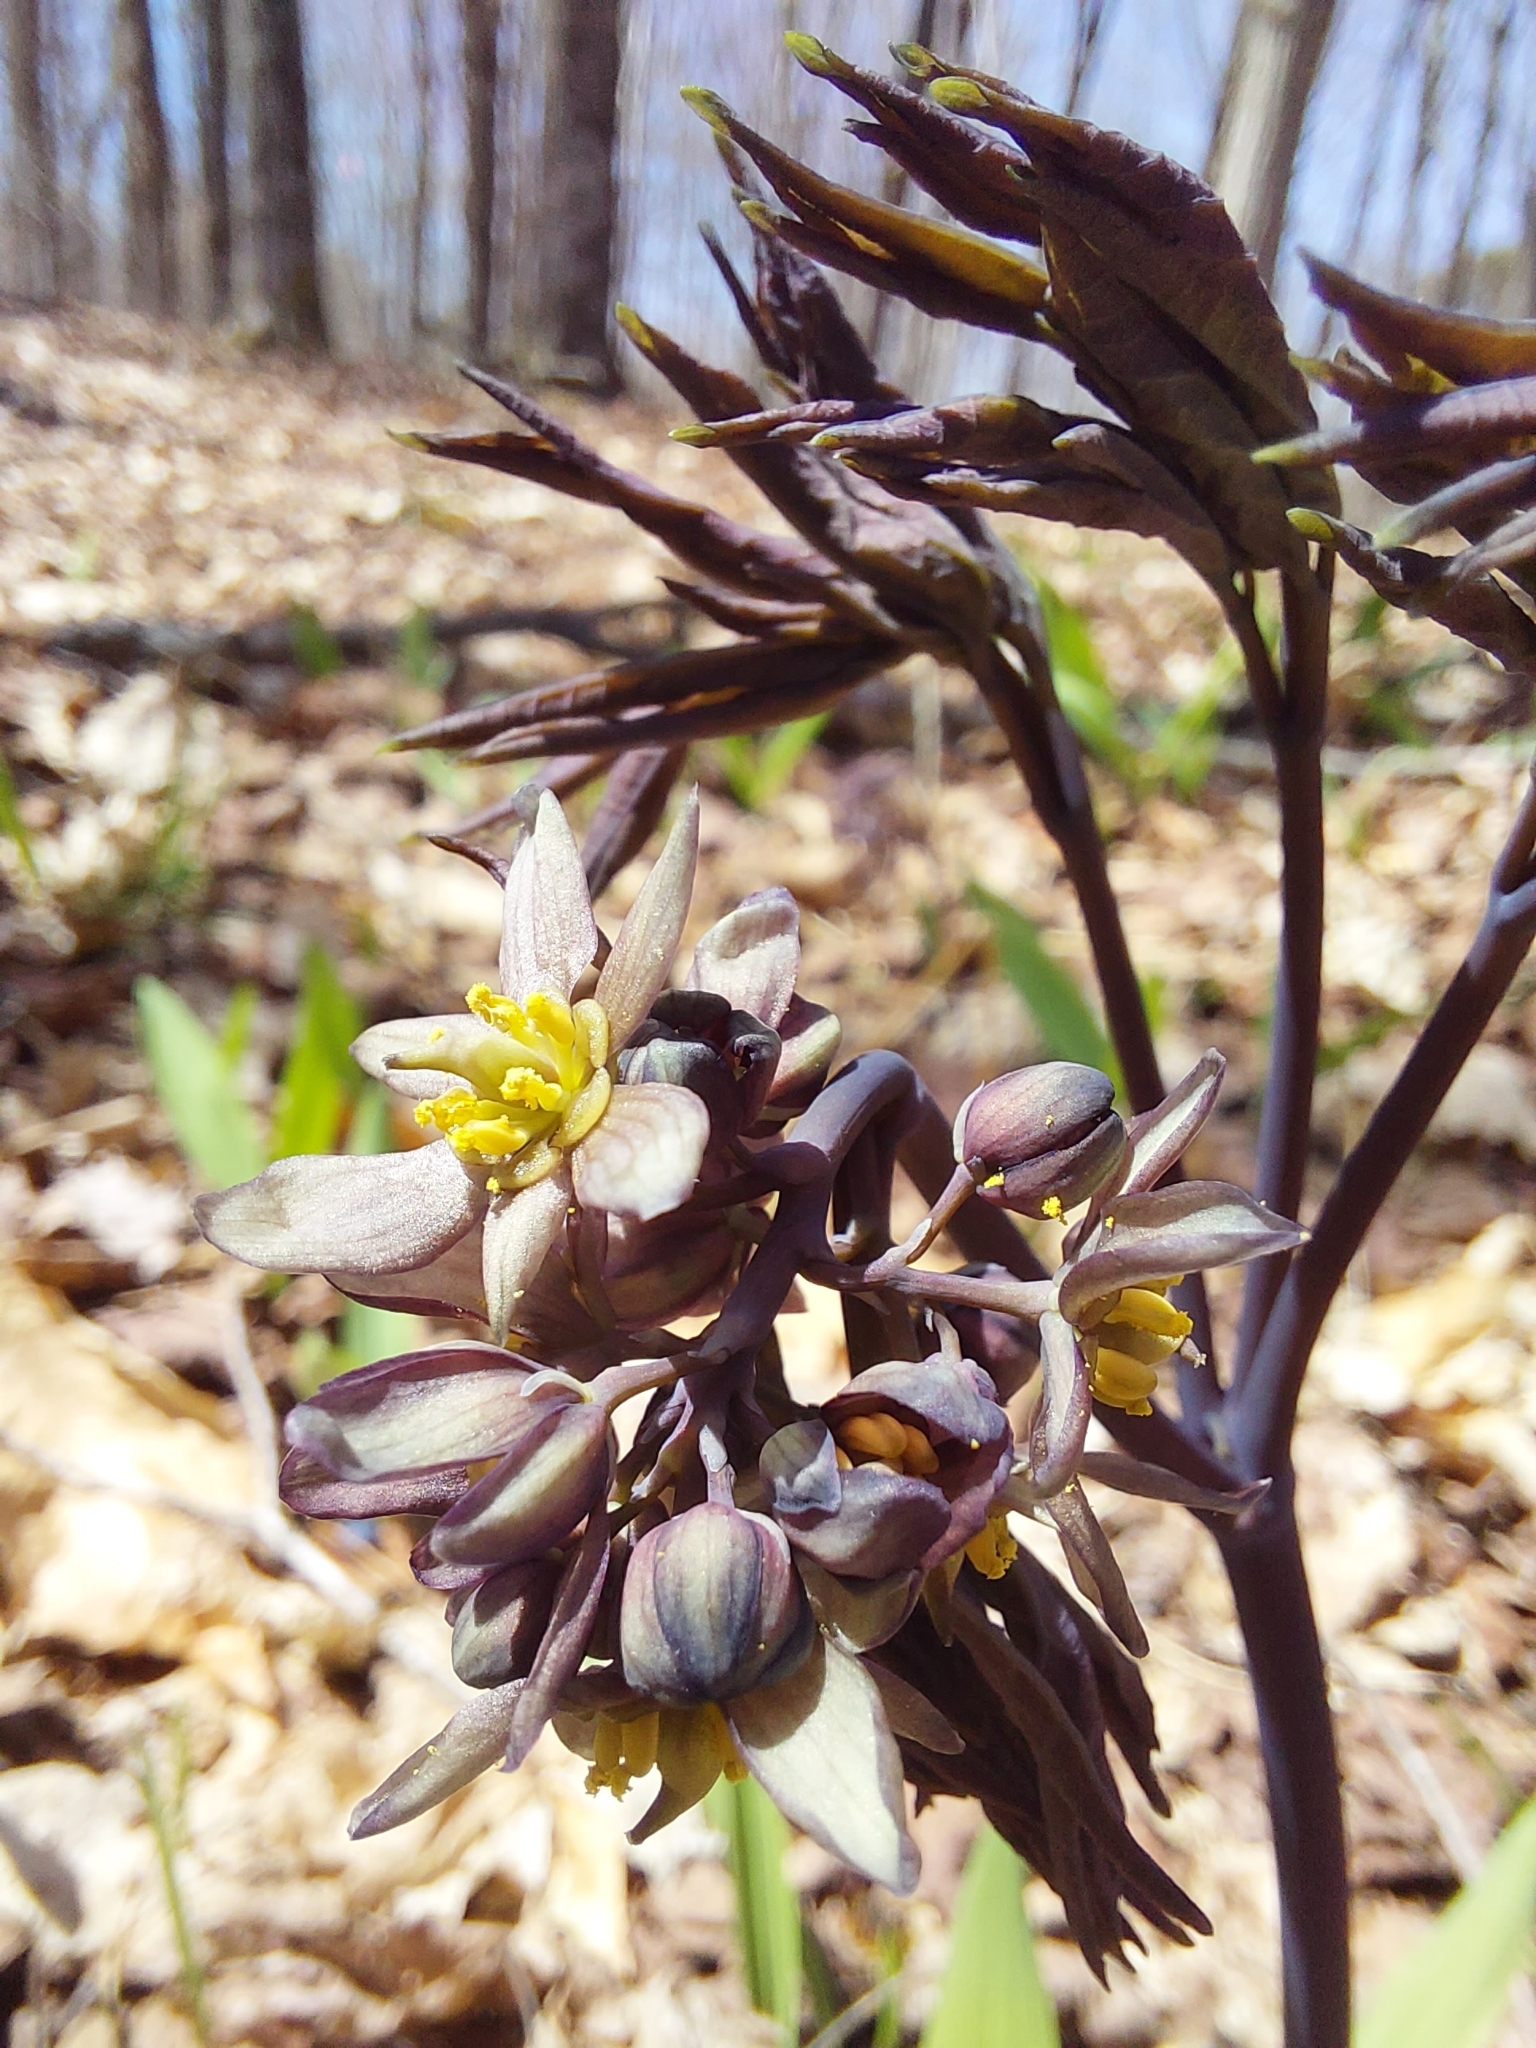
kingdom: Plantae
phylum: Tracheophyta
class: Magnoliopsida
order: Ranunculales
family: Berberidaceae
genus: Caulophyllum
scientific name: Caulophyllum giganteum
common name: Blue cohosh
